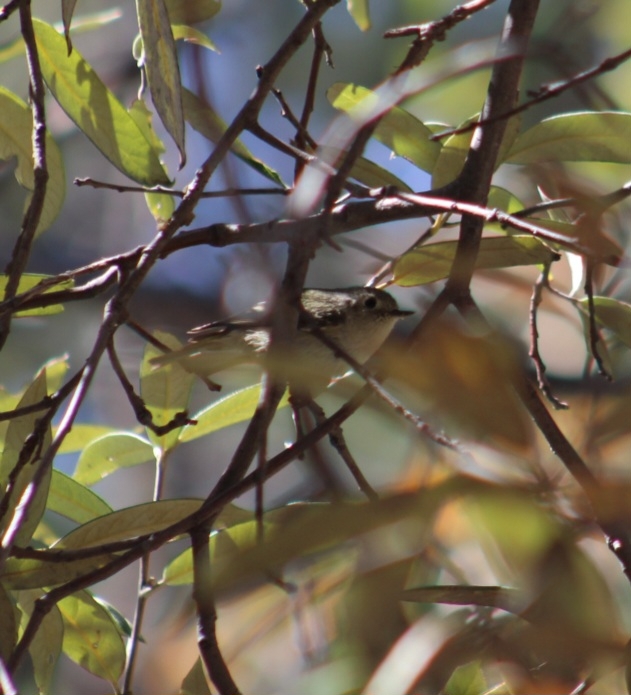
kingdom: Animalia
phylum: Chordata
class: Aves
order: Passeriformes
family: Regulidae
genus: Regulus
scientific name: Regulus calendula
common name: Ruby-crowned kinglet
